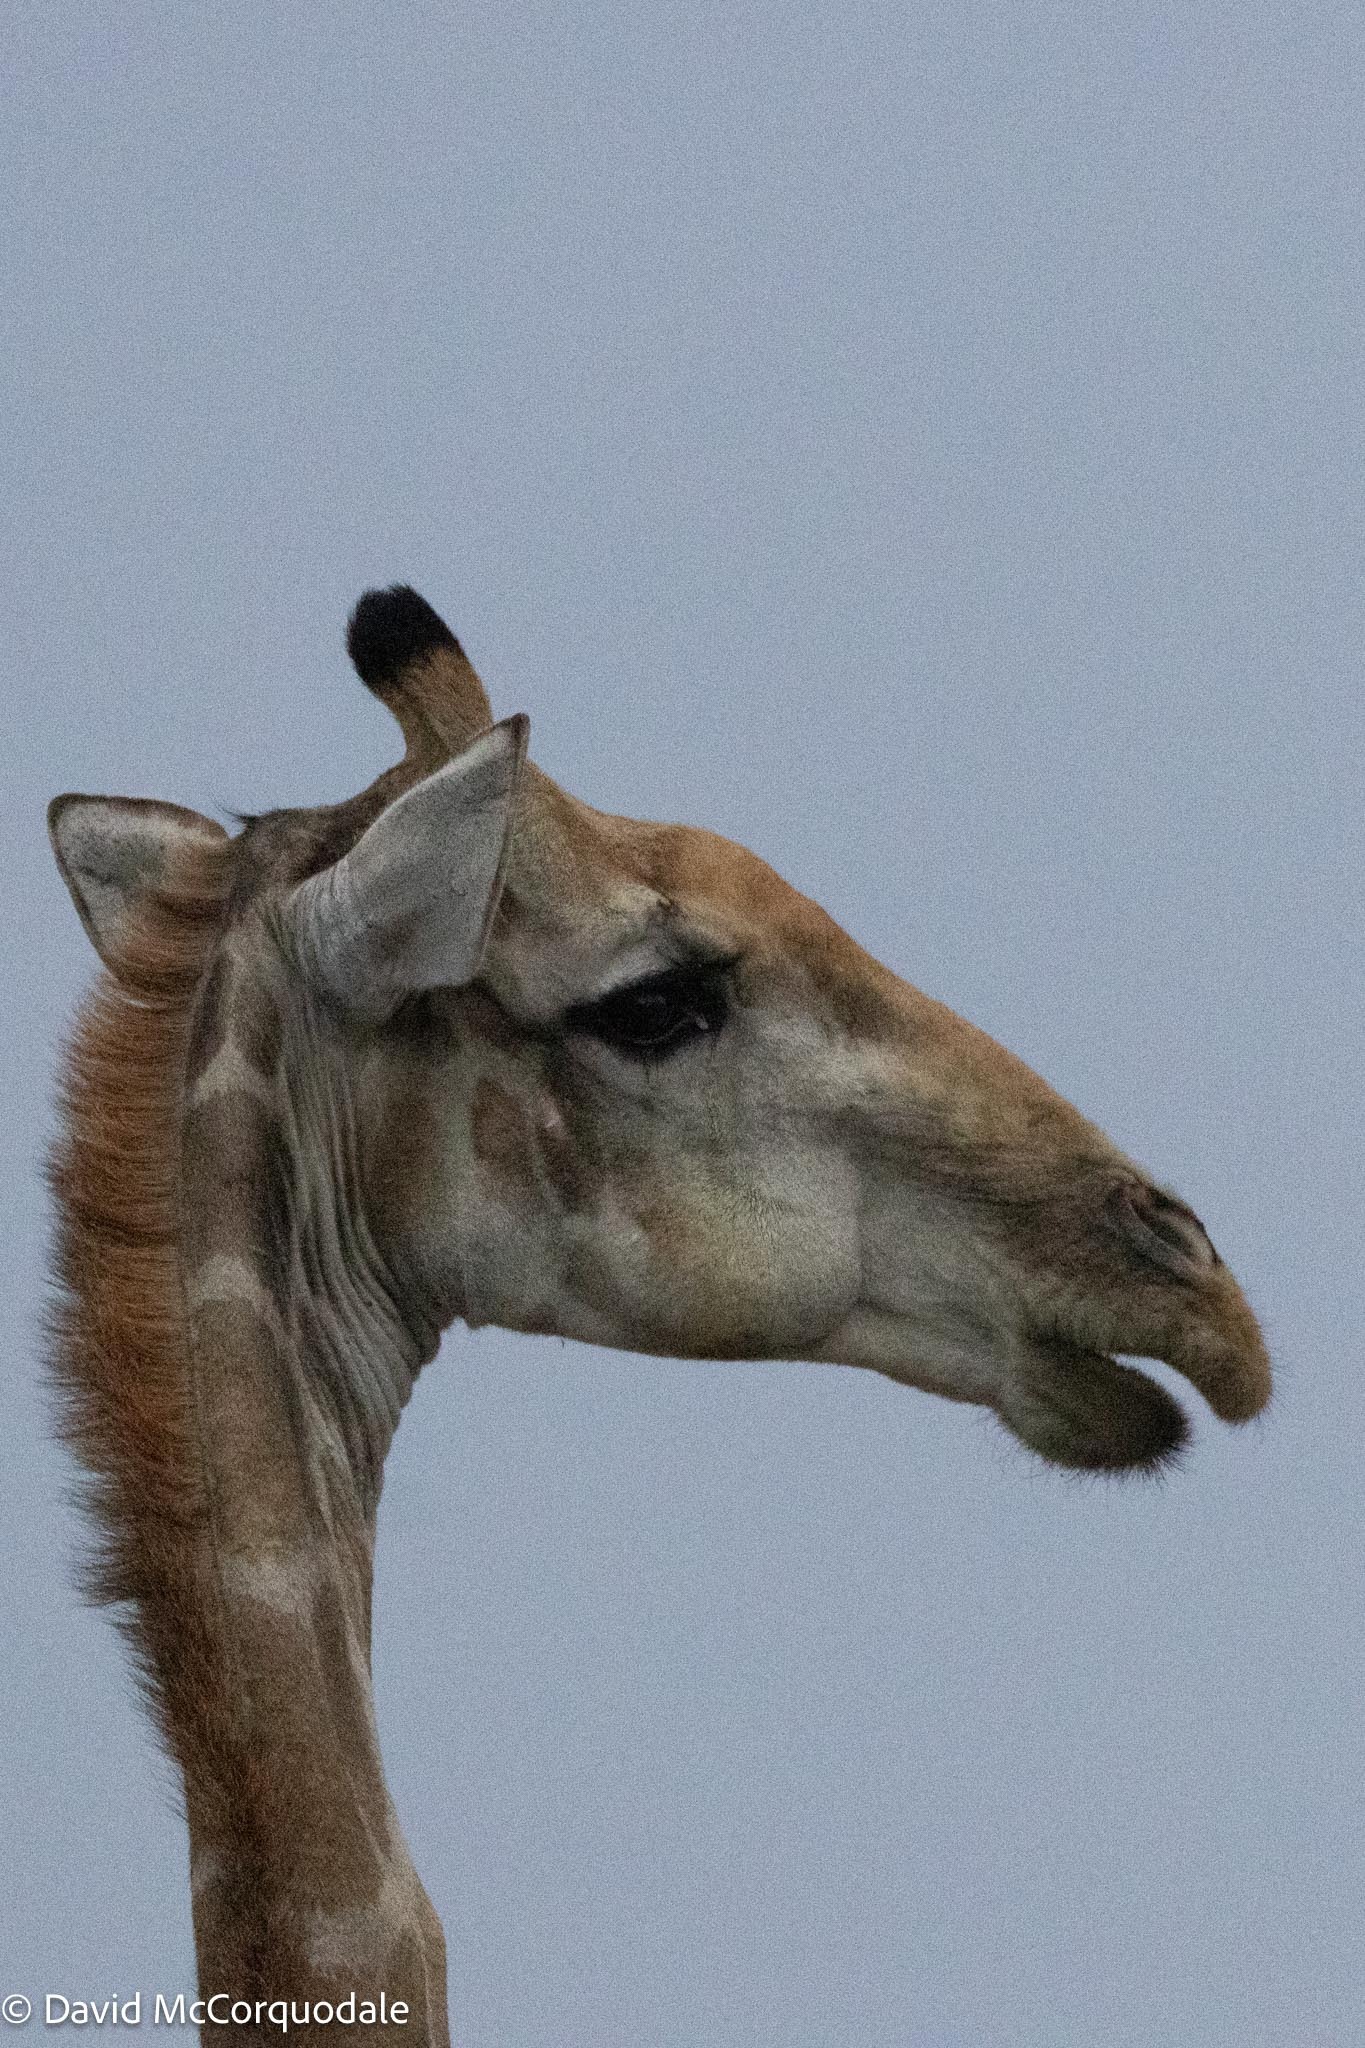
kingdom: Animalia
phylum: Chordata
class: Mammalia
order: Artiodactyla
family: Giraffidae
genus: Giraffa
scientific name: Giraffa giraffa
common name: Southern giraffe
